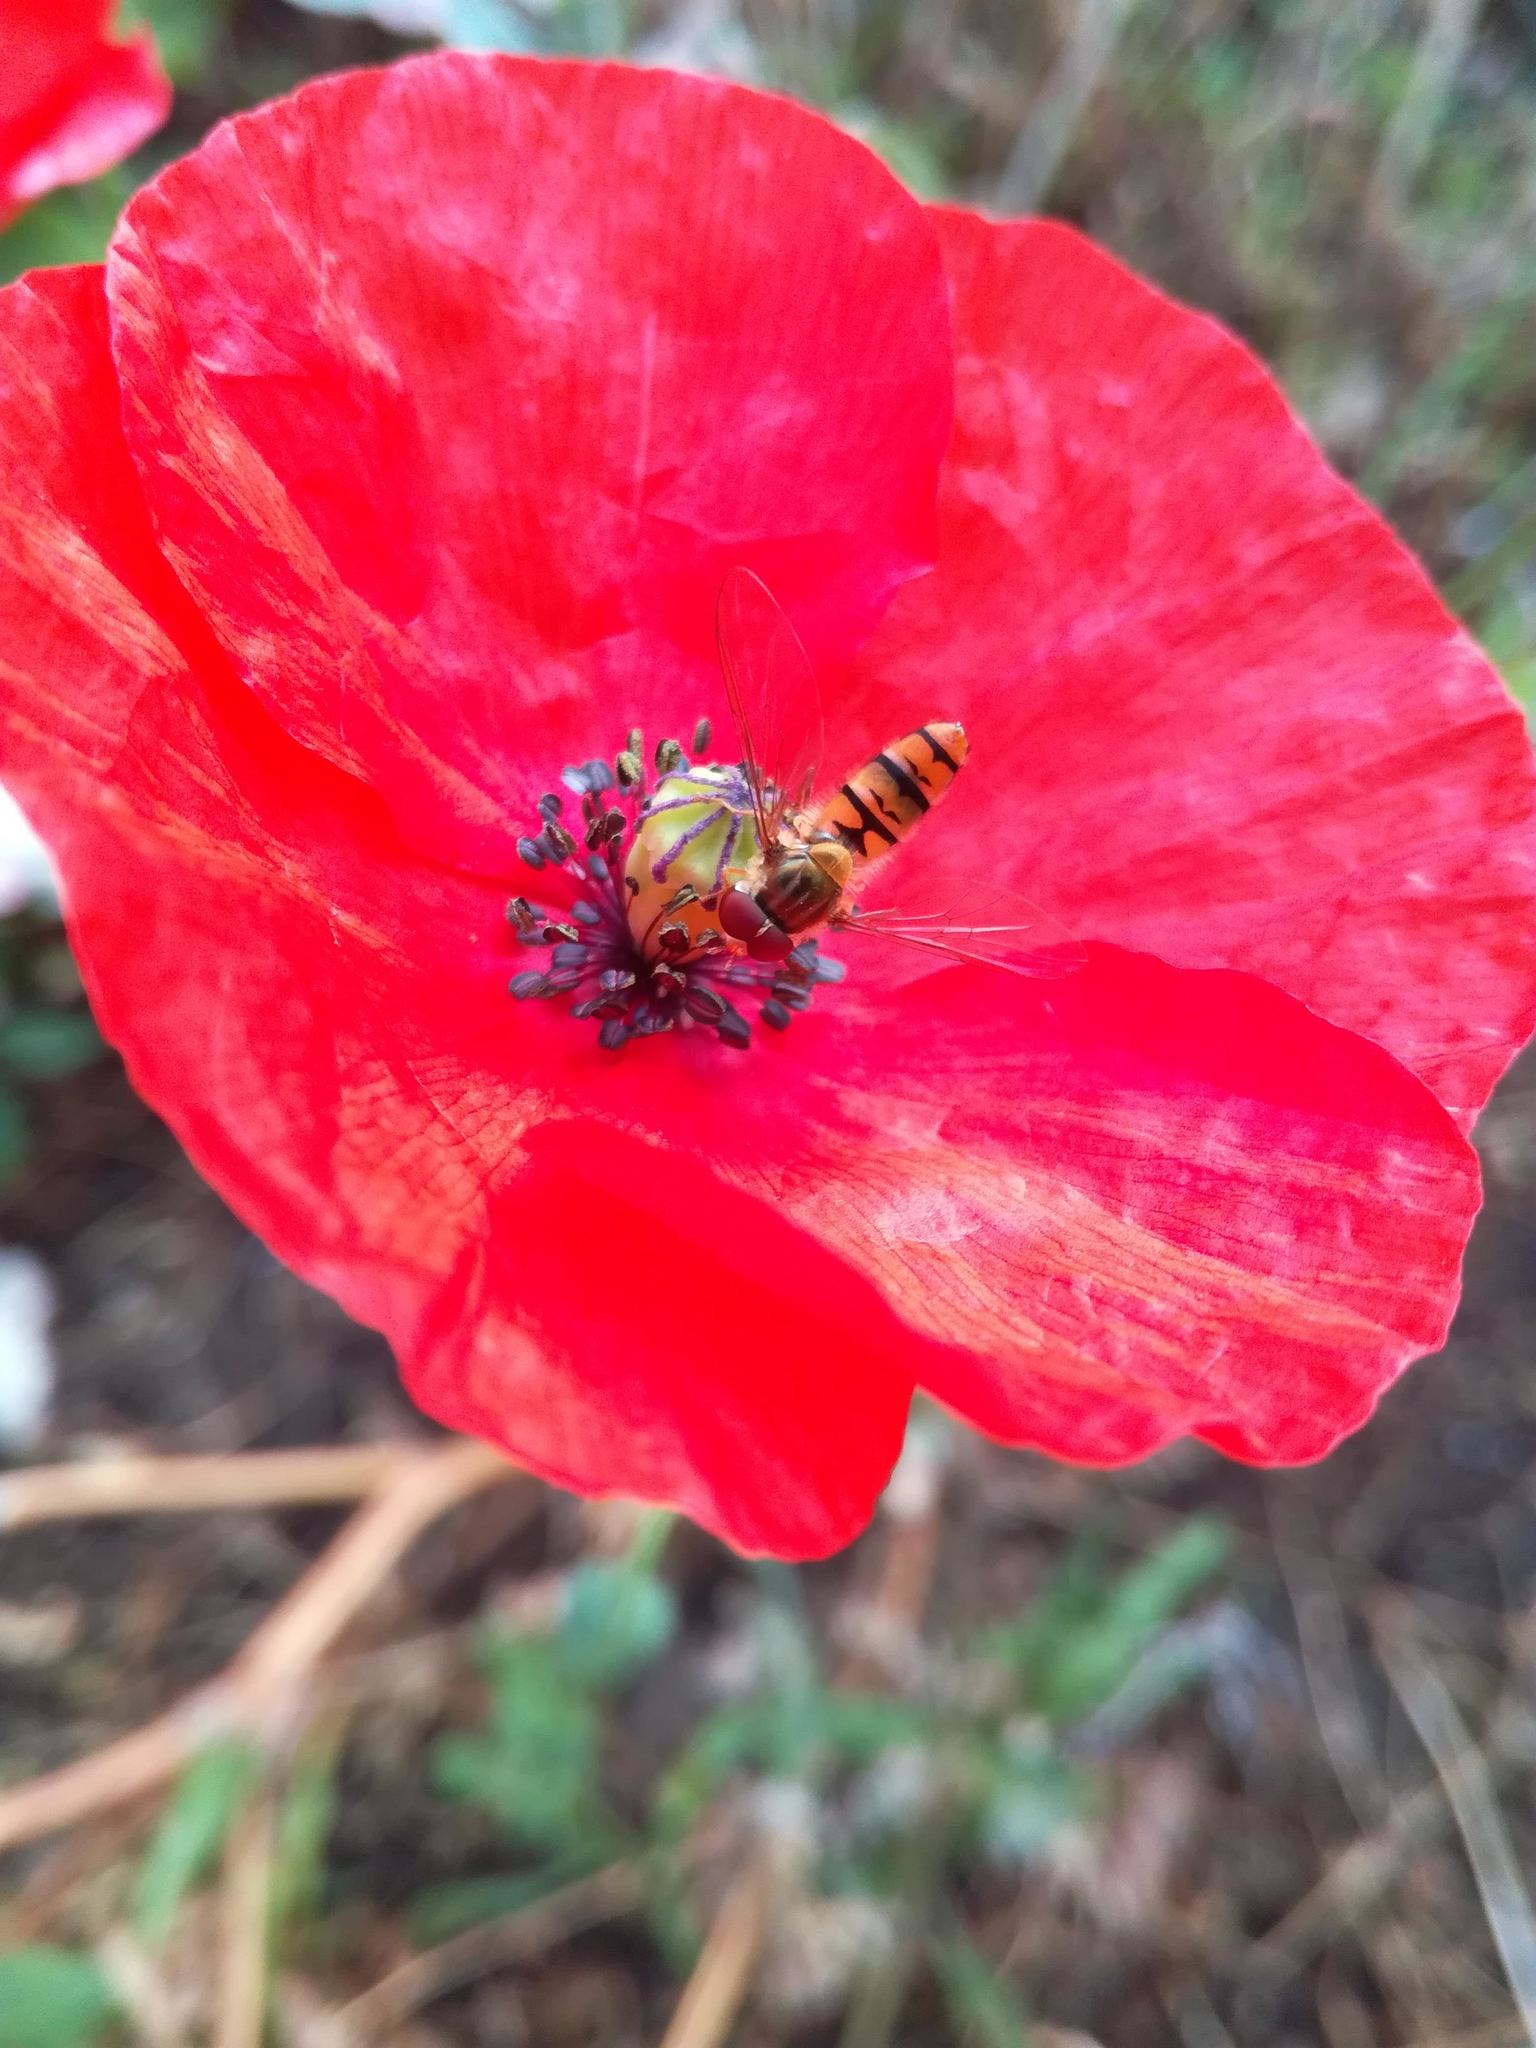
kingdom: Animalia
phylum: Arthropoda
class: Insecta
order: Diptera
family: Syrphidae
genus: Episyrphus
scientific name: Episyrphus balteatus
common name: Marmalade hoverfly
